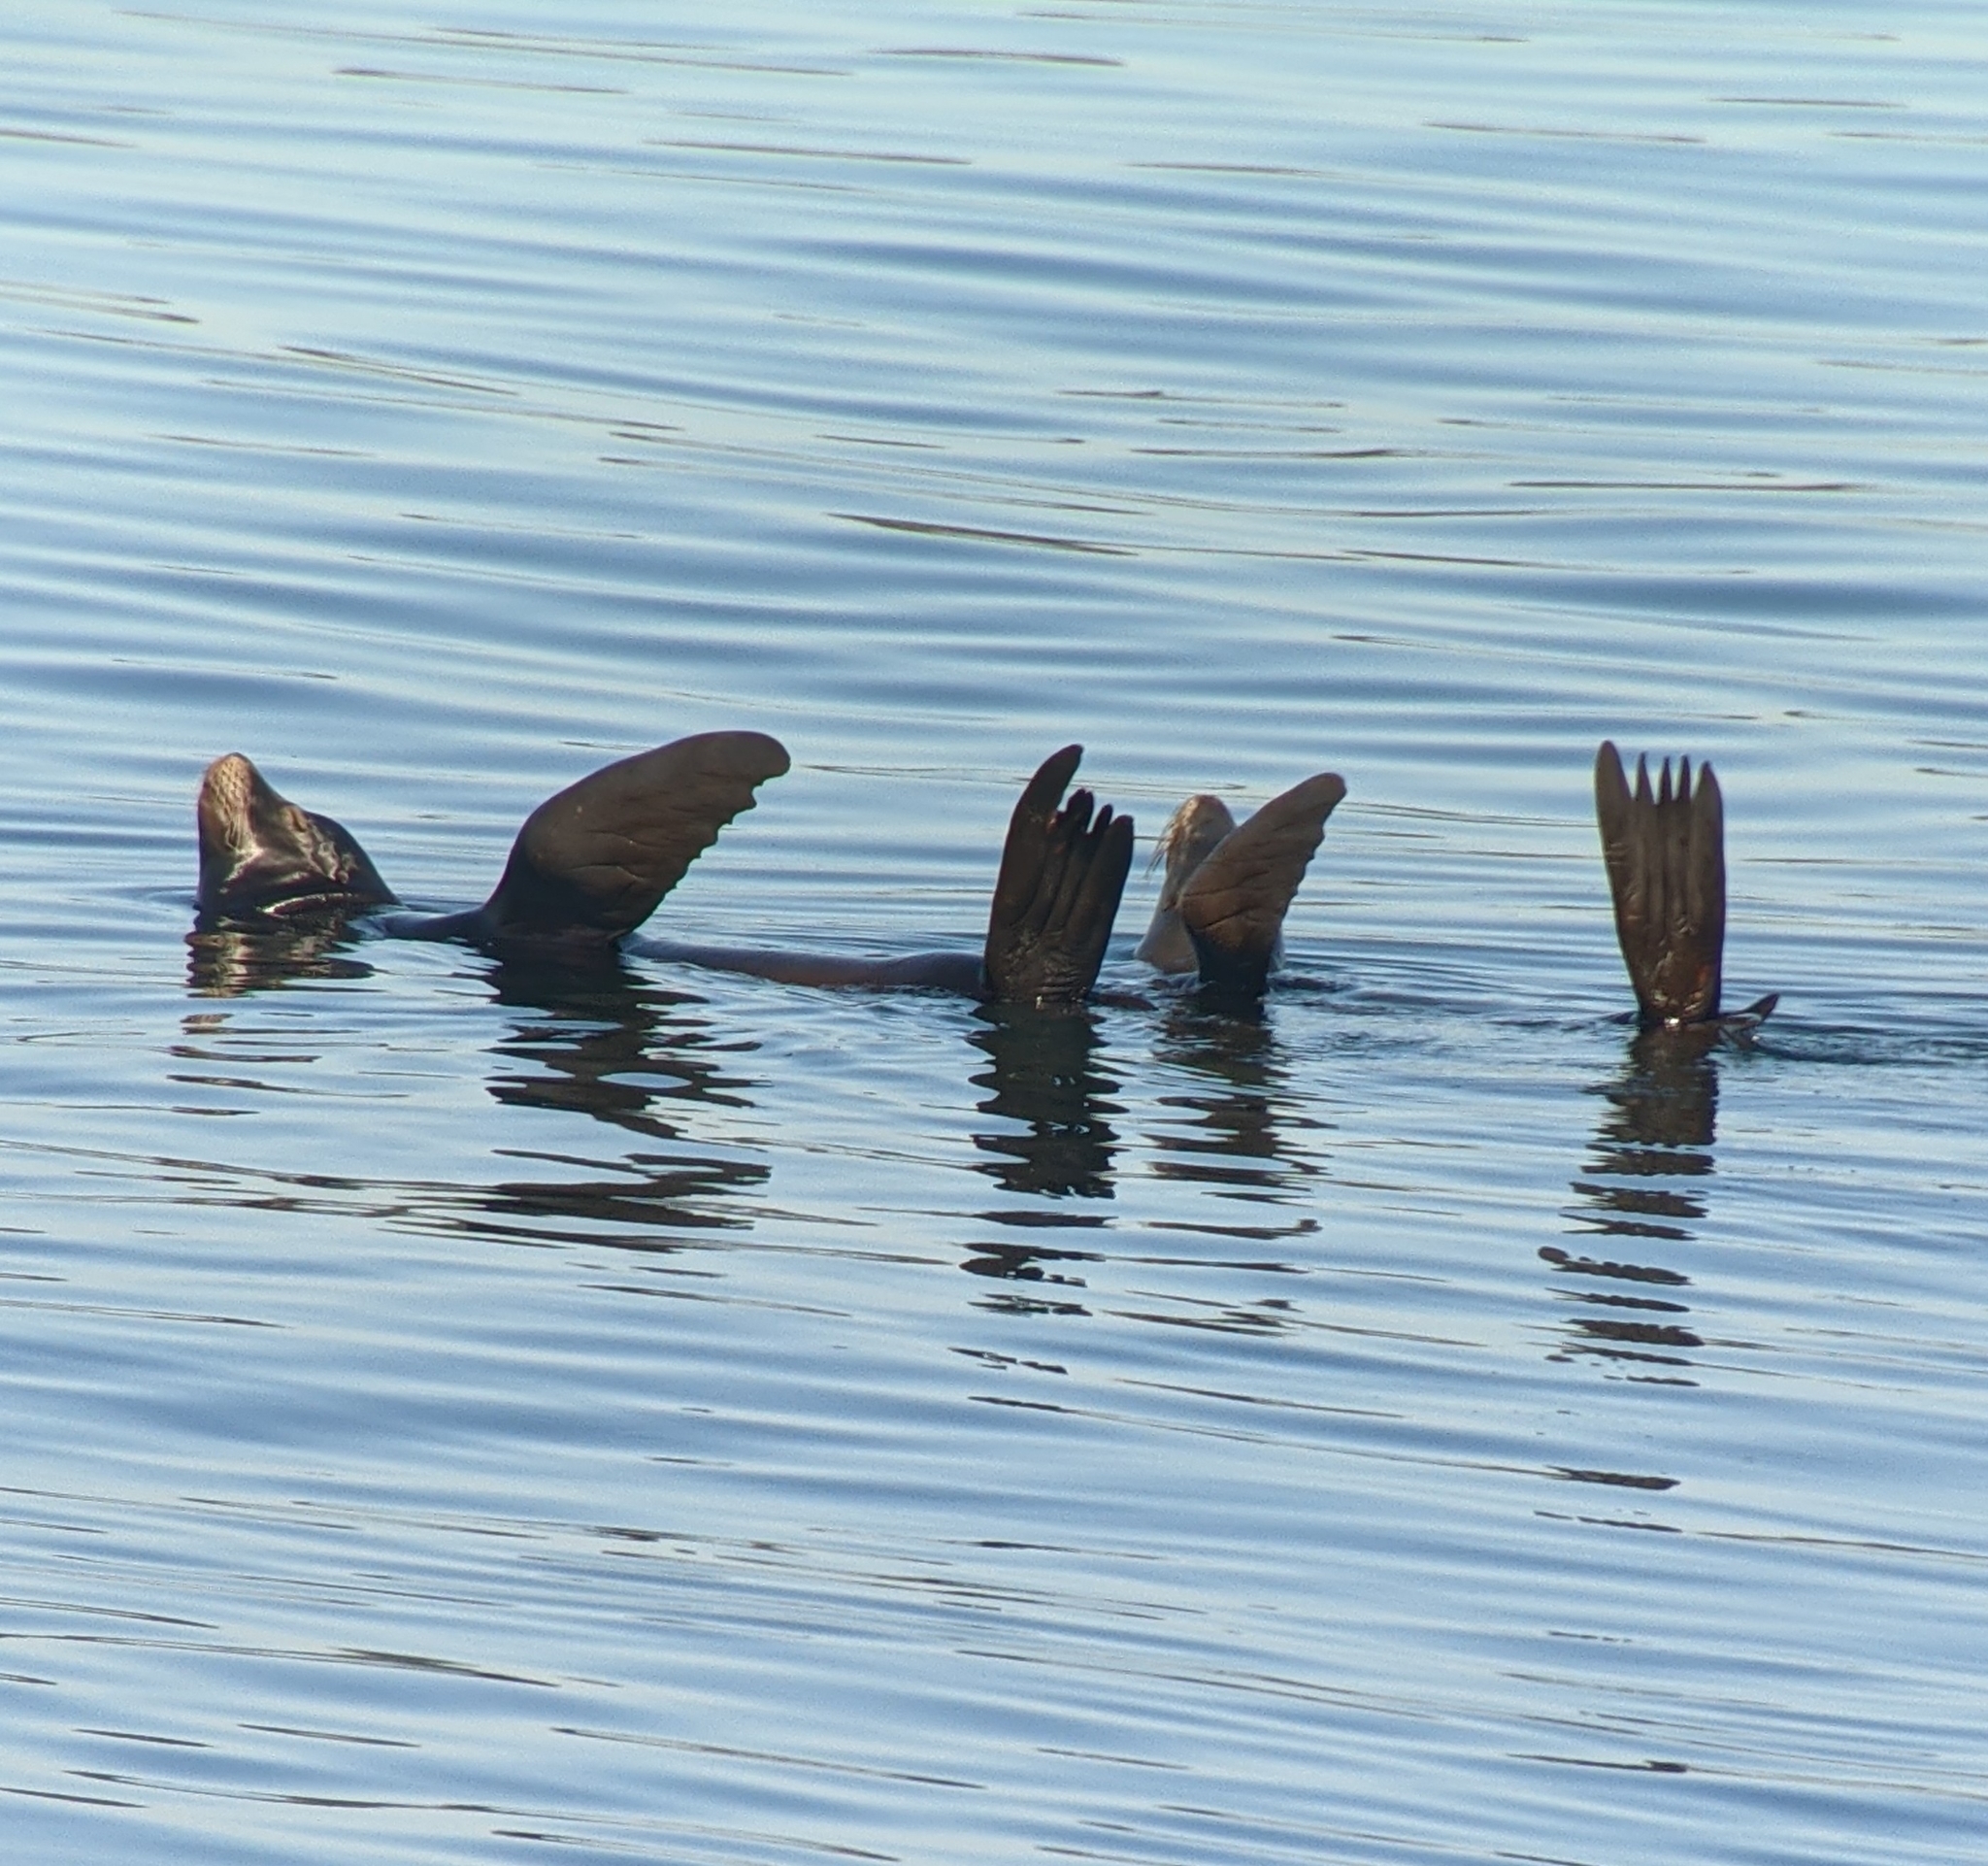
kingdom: Animalia
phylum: Chordata
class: Mammalia
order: Carnivora
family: Otariidae
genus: Zalophus
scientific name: Zalophus californianus
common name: California sea lion
